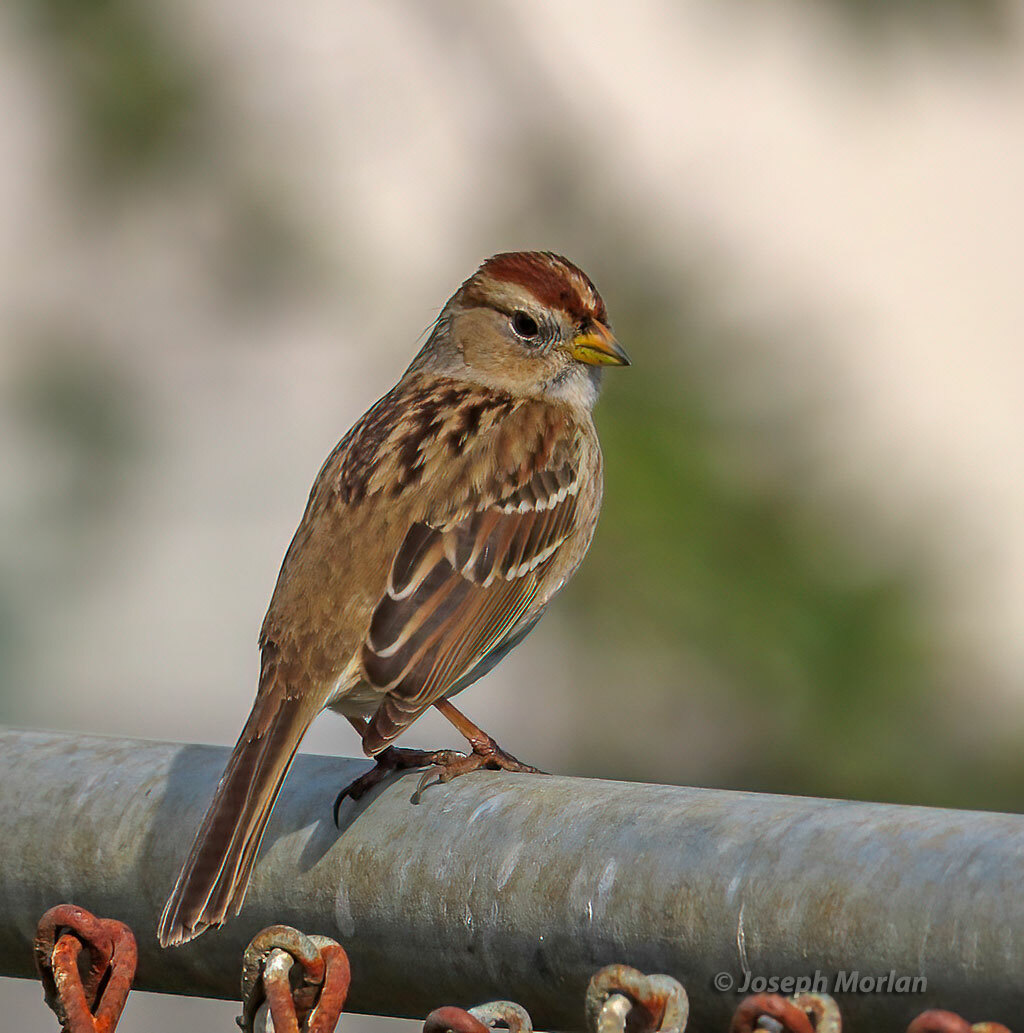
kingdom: Animalia
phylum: Chordata
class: Aves
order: Passeriformes
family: Passerellidae
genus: Zonotrichia
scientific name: Zonotrichia leucophrys
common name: White-crowned sparrow
